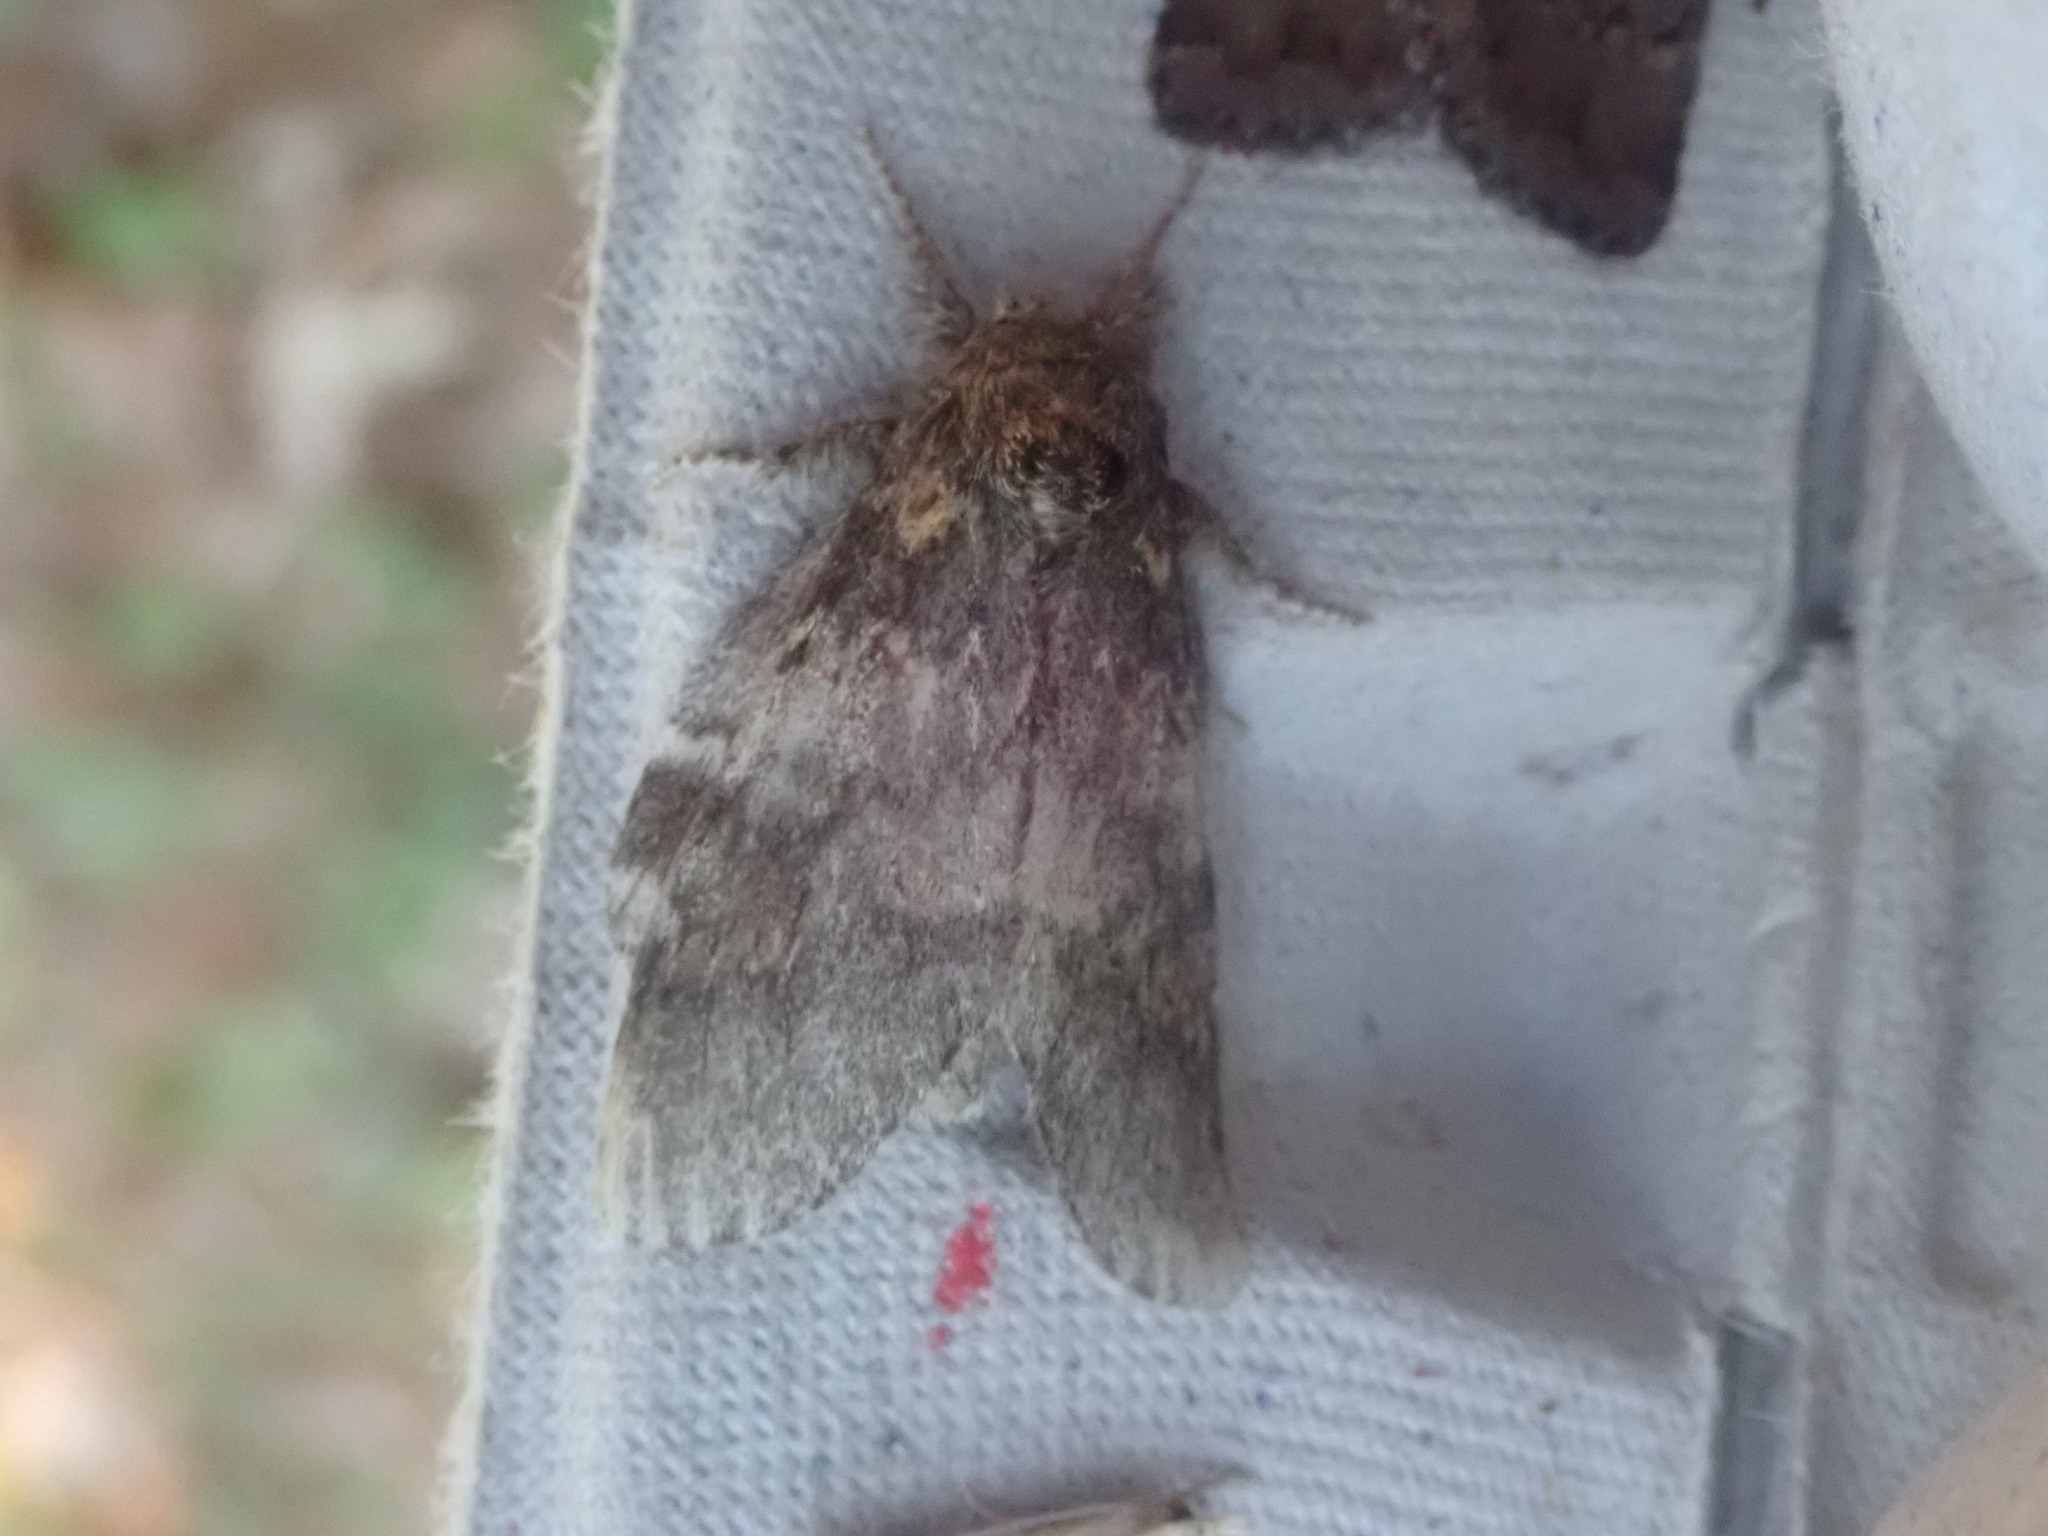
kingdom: Animalia
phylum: Arthropoda
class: Insecta
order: Lepidoptera
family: Notodontidae
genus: Peridea
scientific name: Peridea angulosa
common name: Angulose prominent
